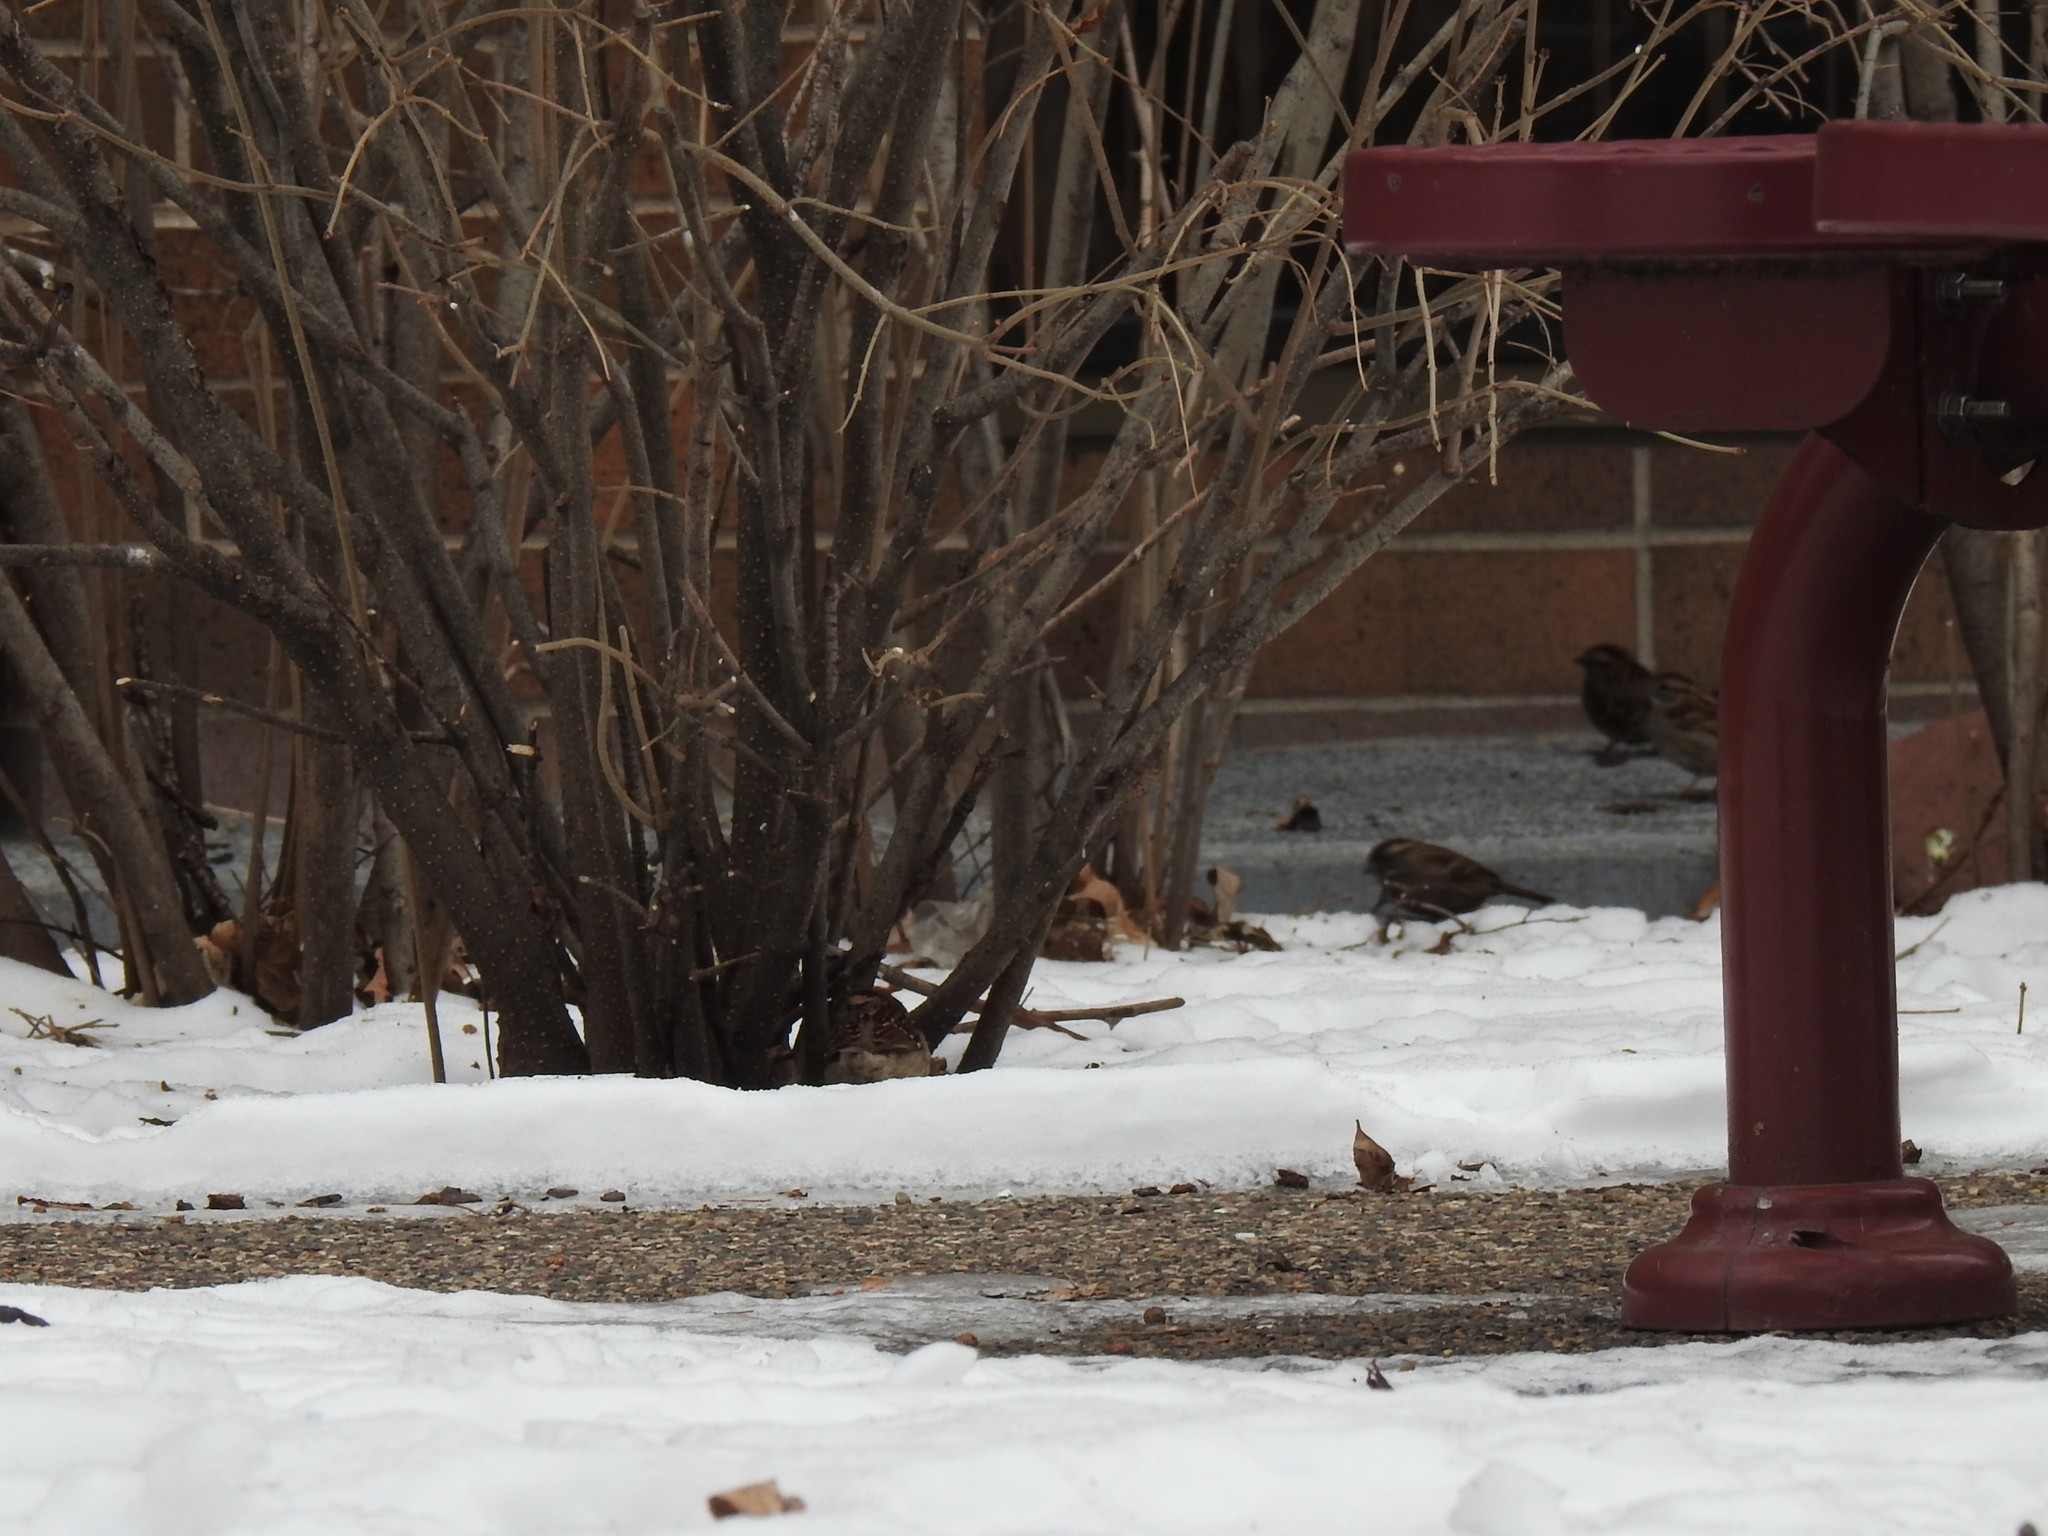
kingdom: Animalia
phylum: Chordata
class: Aves
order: Passeriformes
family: Passerellidae
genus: Zonotrichia
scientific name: Zonotrichia albicollis
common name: White-throated sparrow
